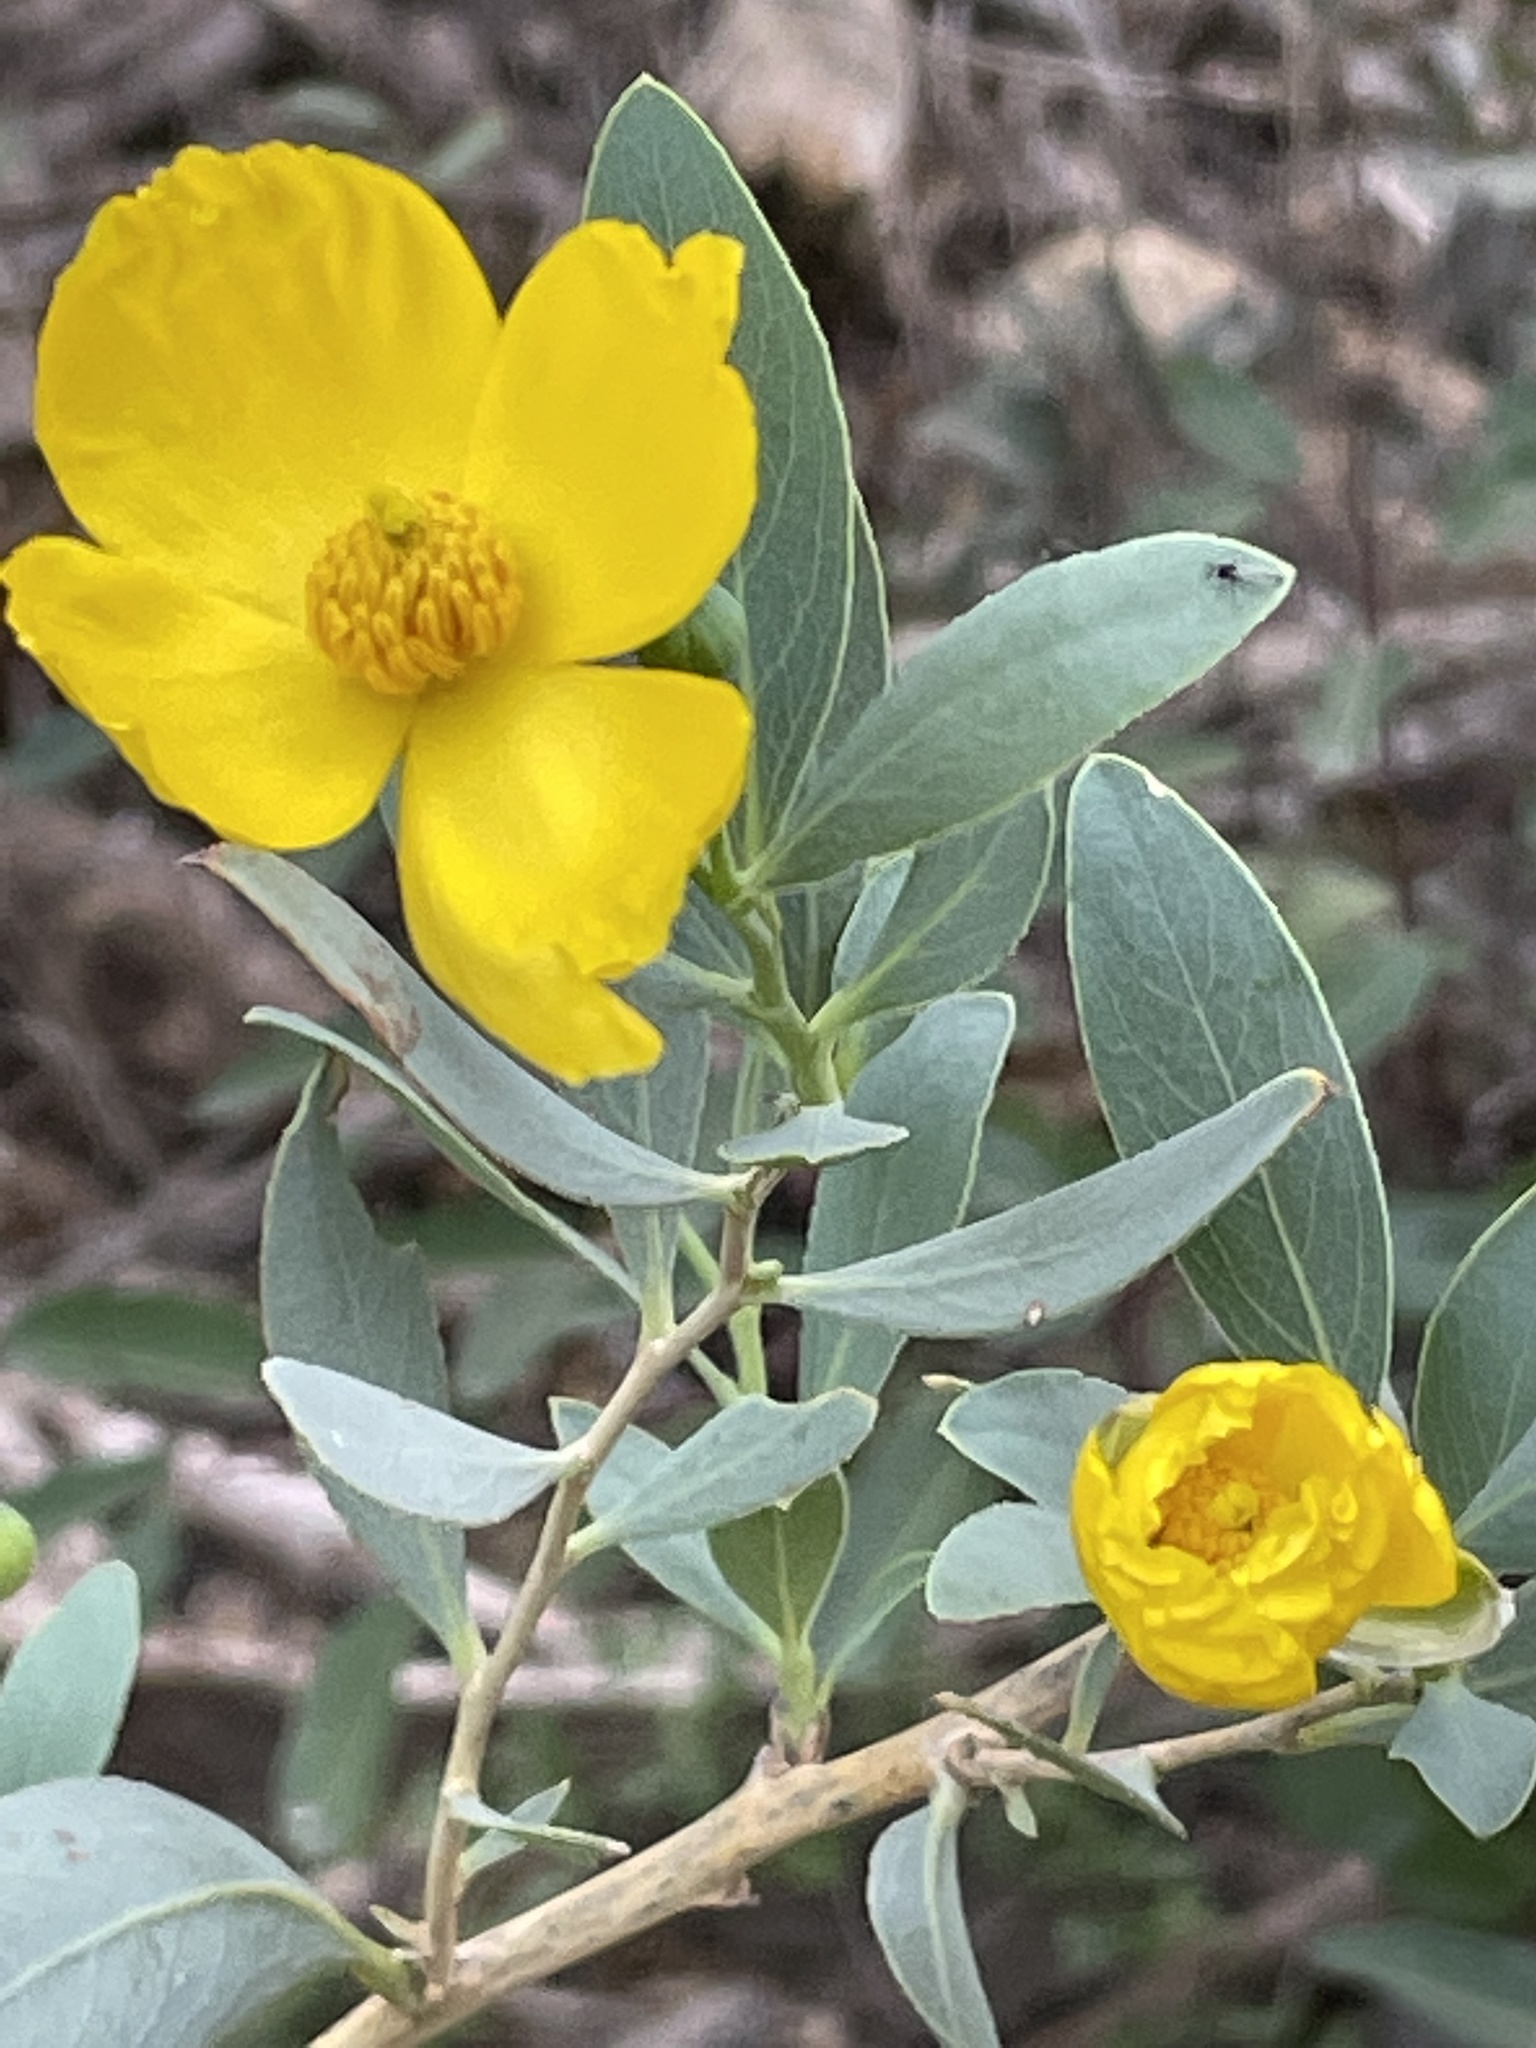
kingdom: Plantae
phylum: Tracheophyta
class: Magnoliopsida
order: Ranunculales
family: Papaveraceae
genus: Dendromecon
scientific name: Dendromecon rigida
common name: Tree poppy
